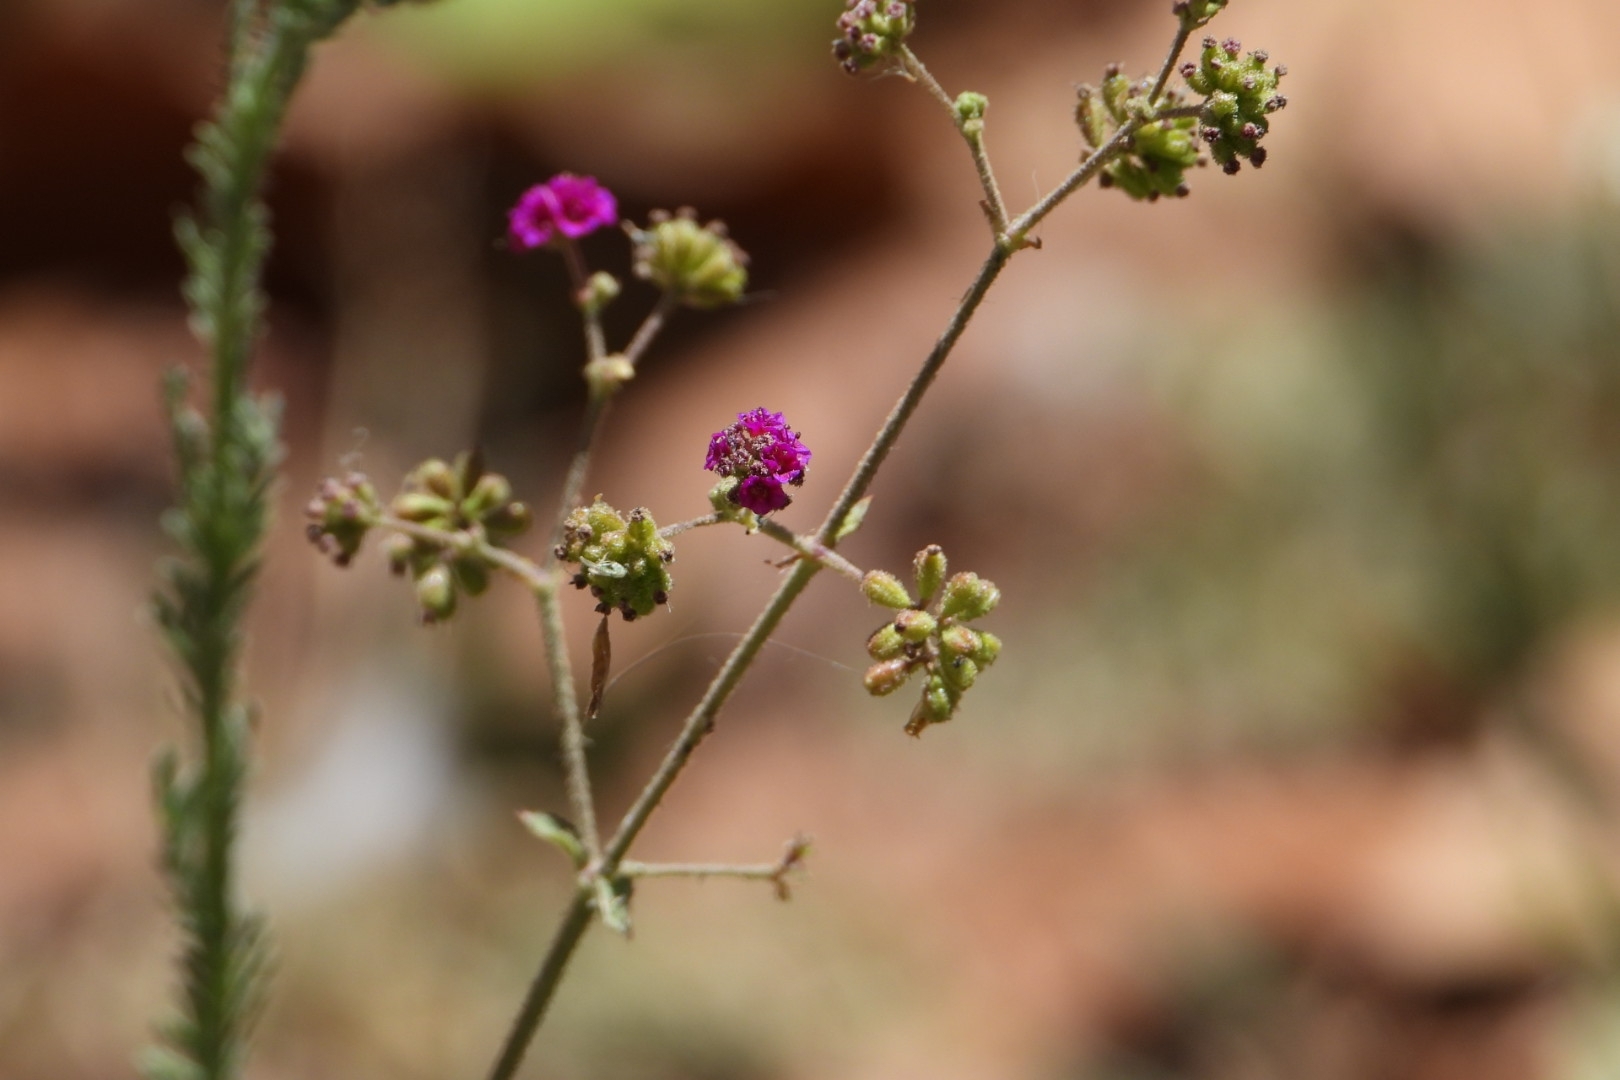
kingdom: Plantae
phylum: Tracheophyta
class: Magnoliopsida
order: Caryophyllales
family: Nyctaginaceae
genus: Boerhavia
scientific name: Boerhavia coccinea
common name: Scarlet spiderling
